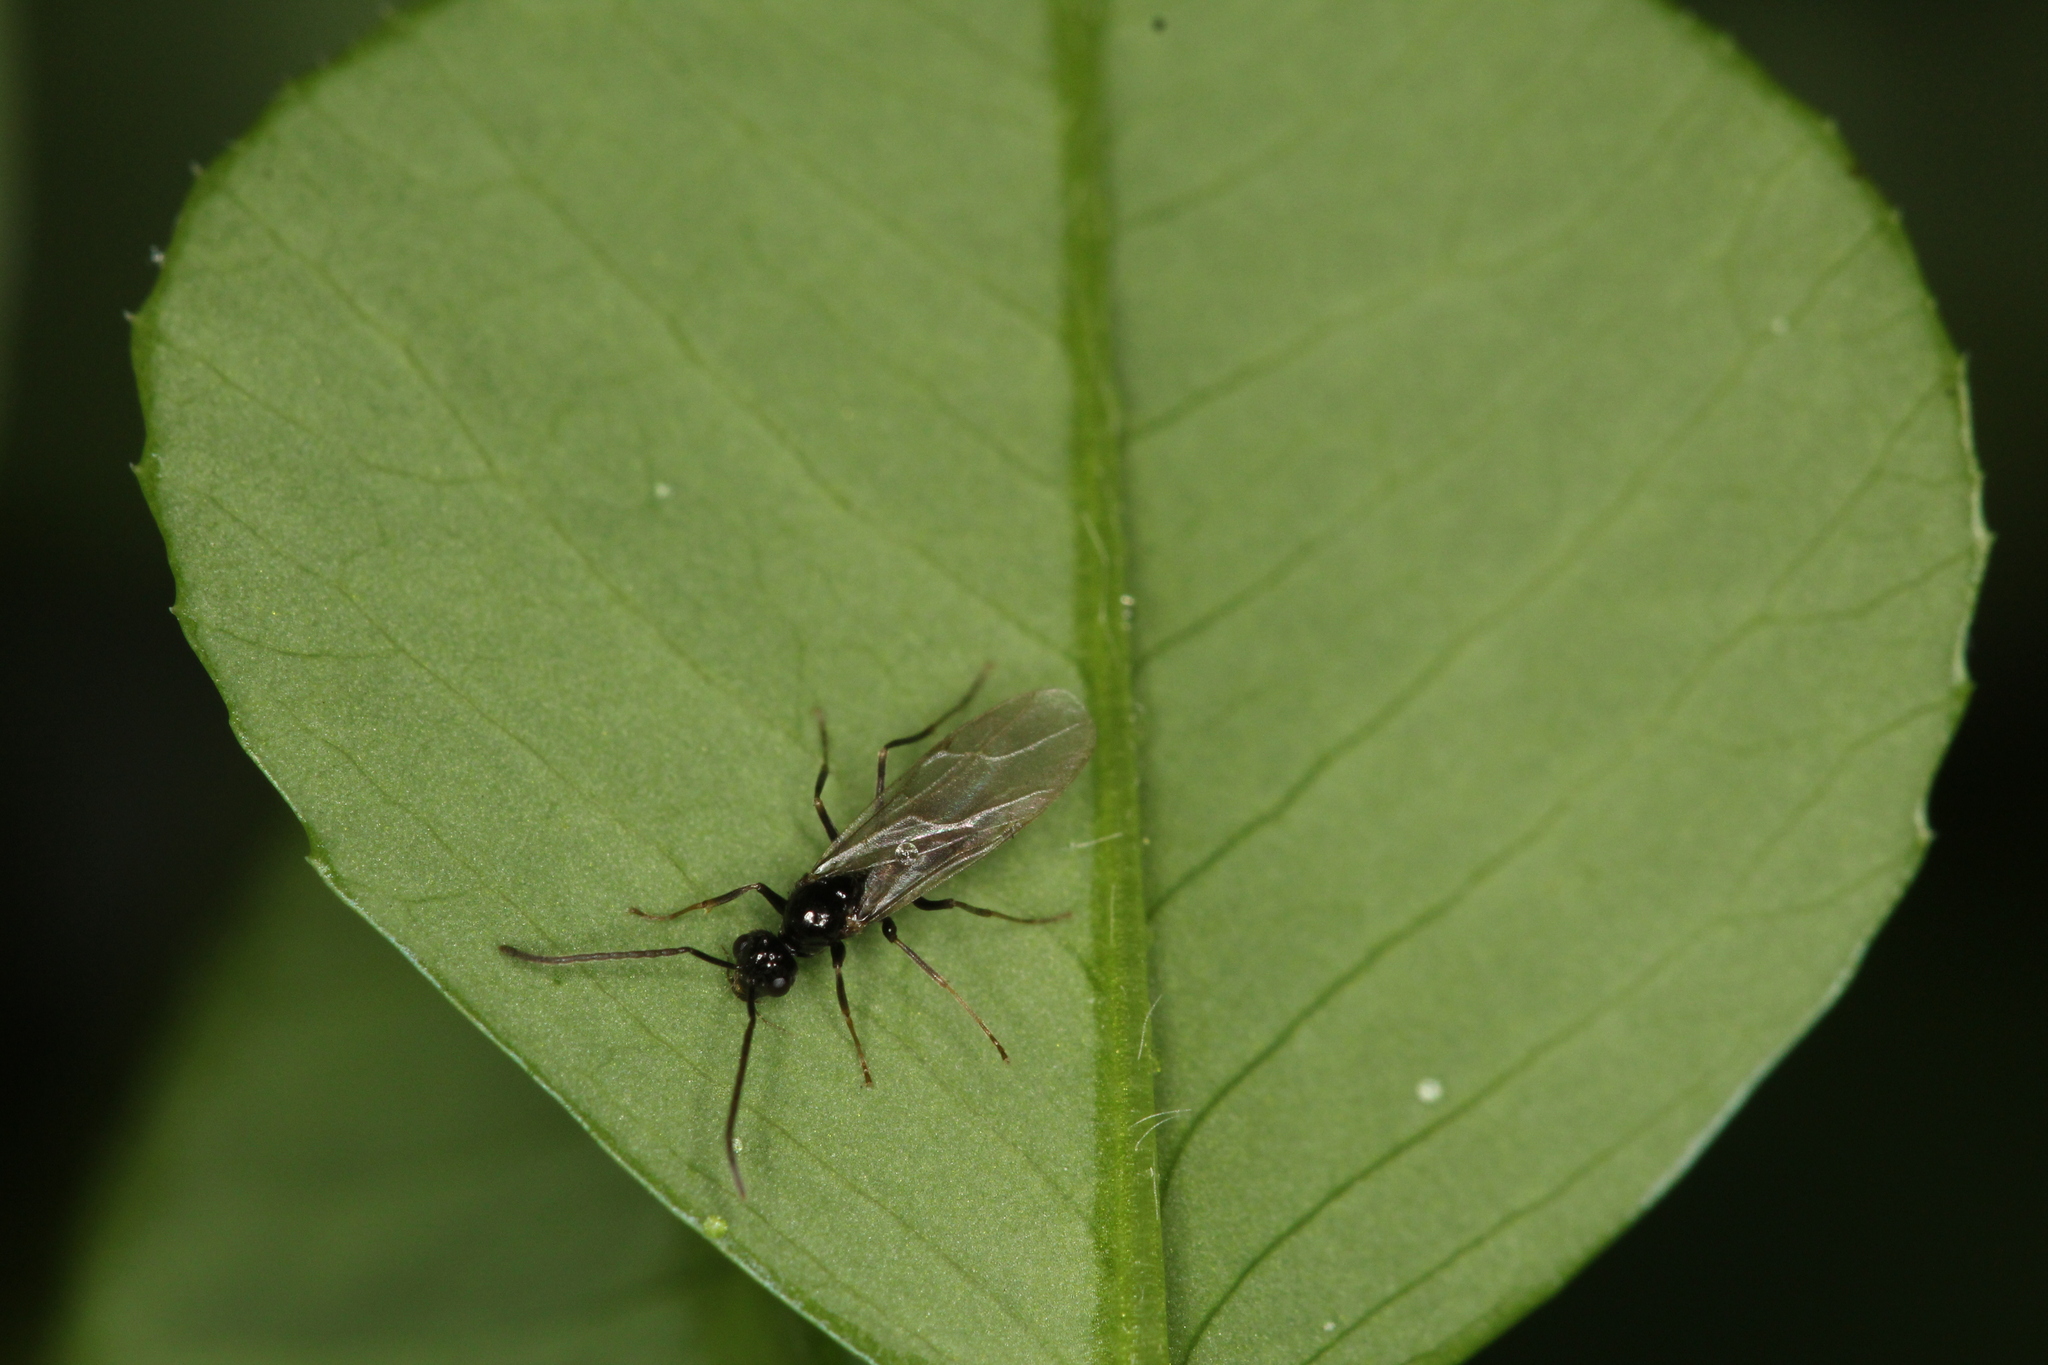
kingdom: Animalia
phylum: Arthropoda
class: Insecta
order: Hymenoptera
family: Formicidae
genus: Prenolepis
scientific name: Prenolepis imparis
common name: Small honey ant
